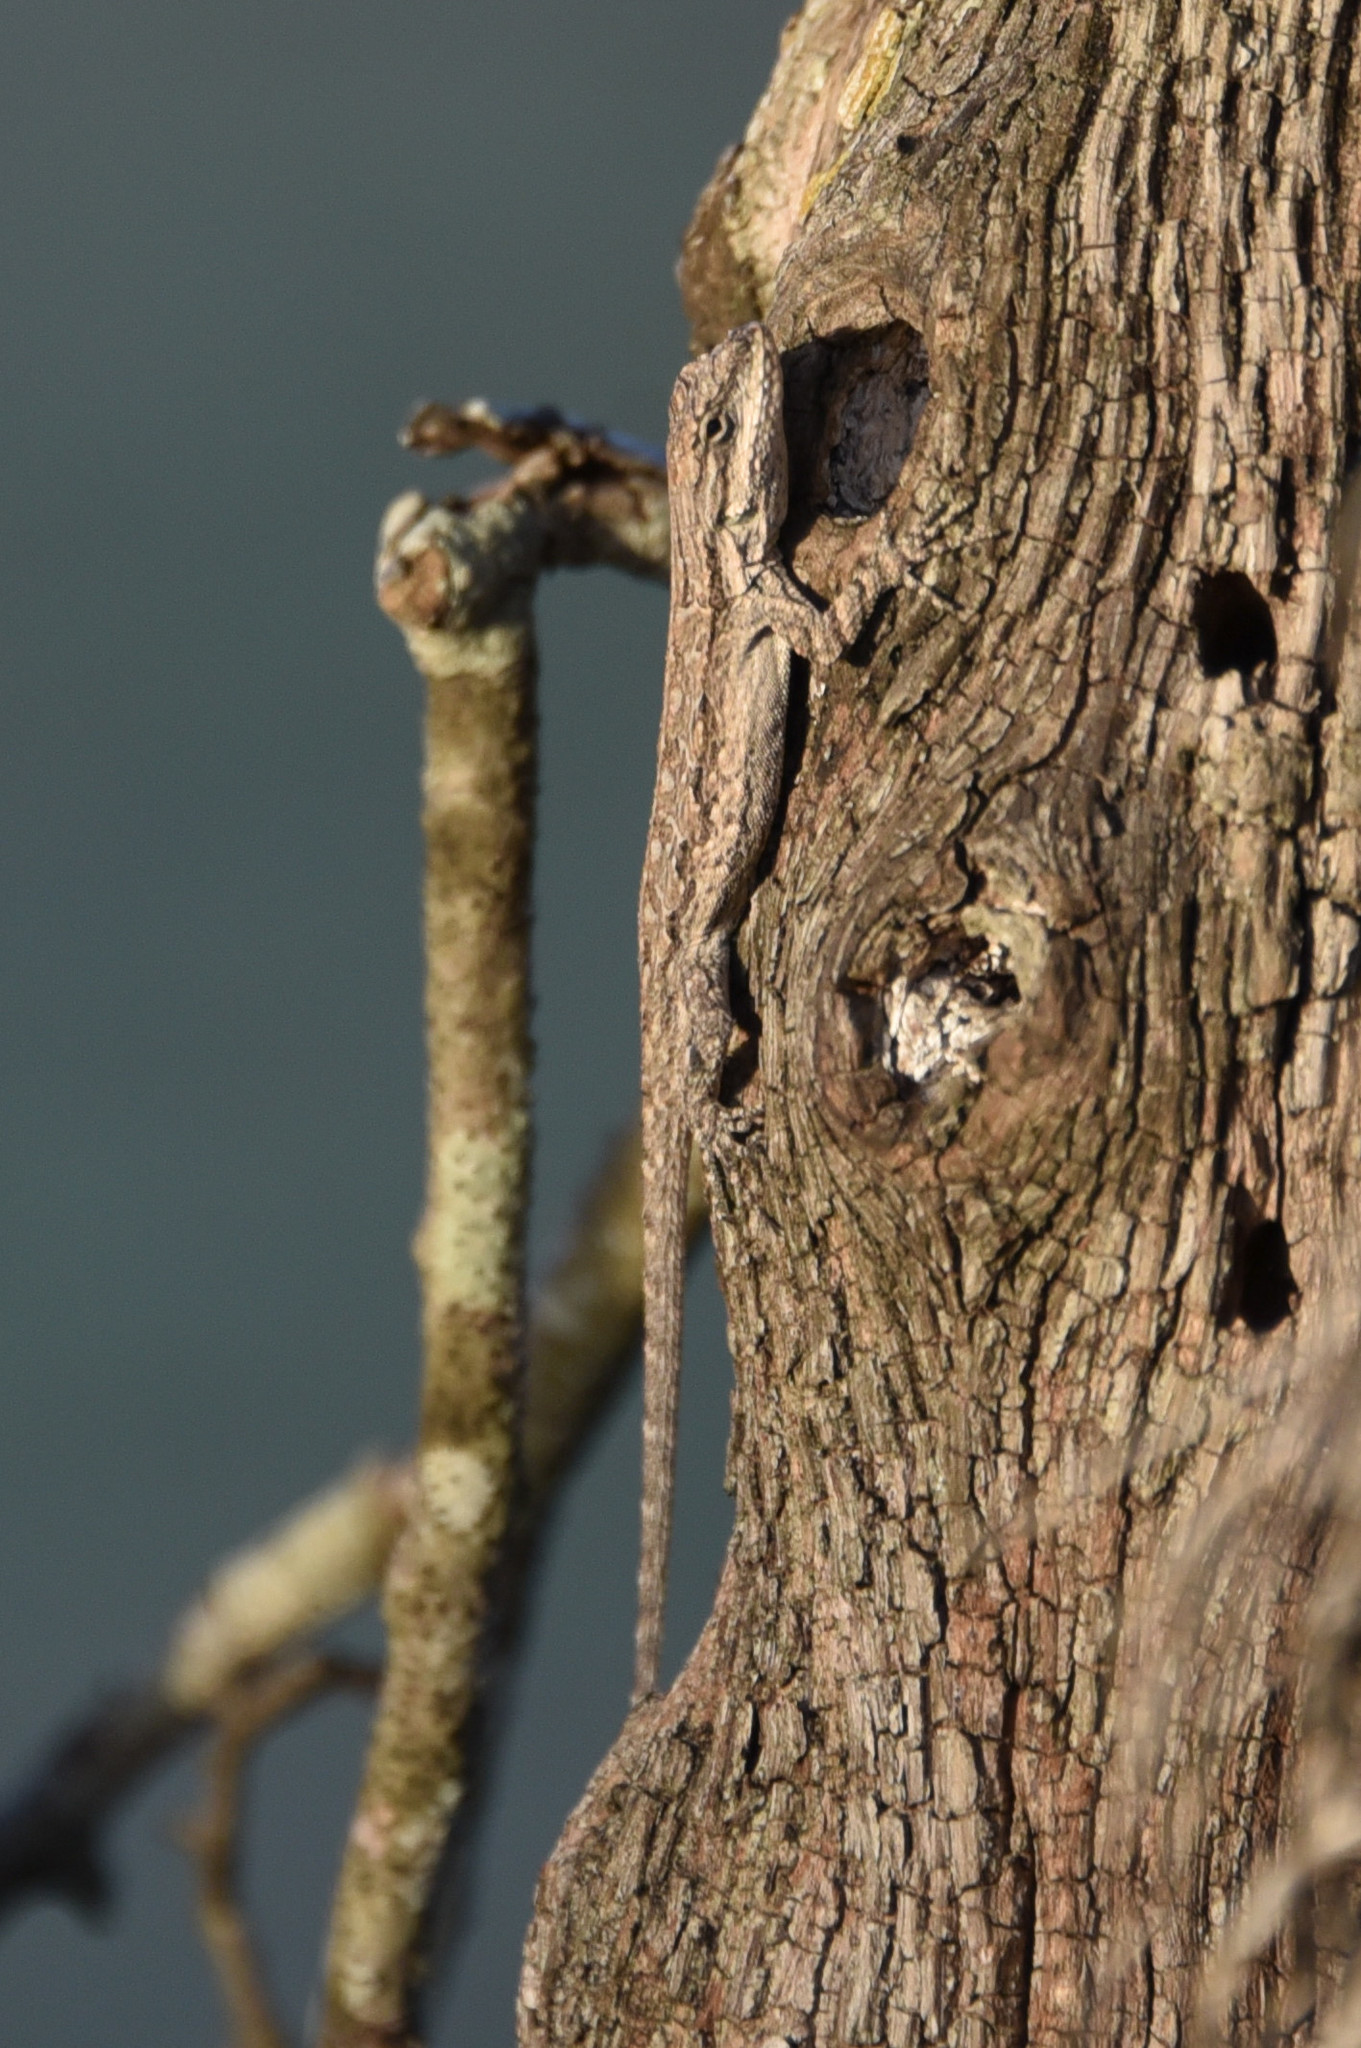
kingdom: Animalia
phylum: Chordata
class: Squamata
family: Phrynosomatidae
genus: Urosaurus
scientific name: Urosaurus ornatus
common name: Ornate tree lizard
